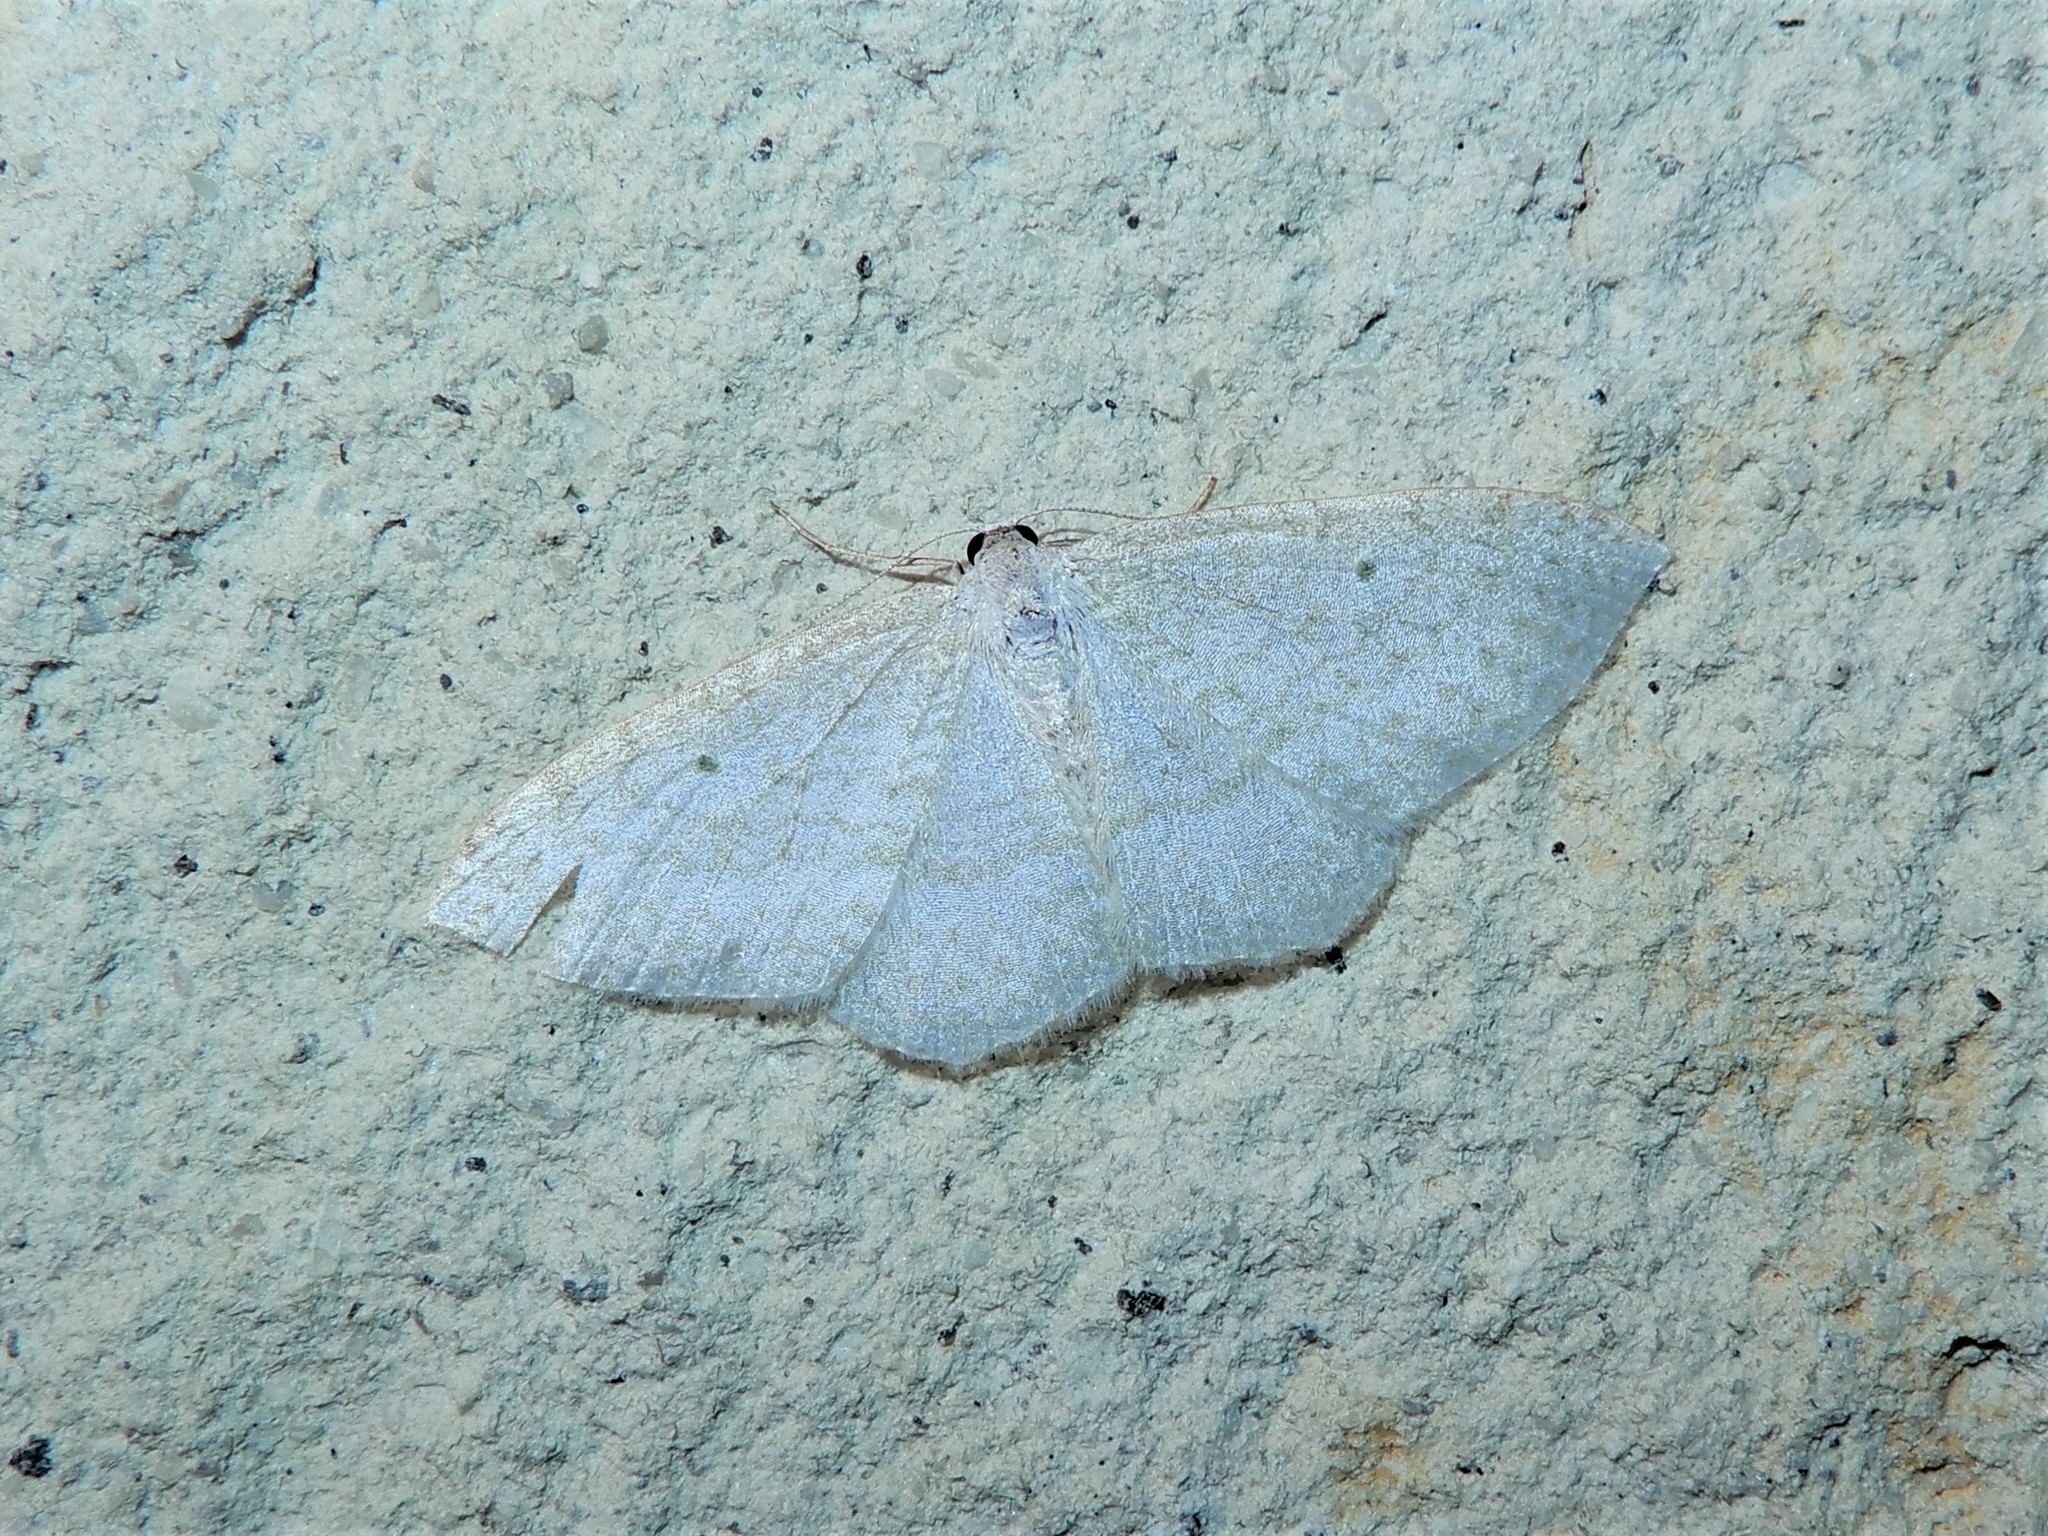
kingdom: Animalia
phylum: Arthropoda
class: Insecta
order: Lepidoptera
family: Geometridae
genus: Poecilasthena
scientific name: Poecilasthena pulchraria
